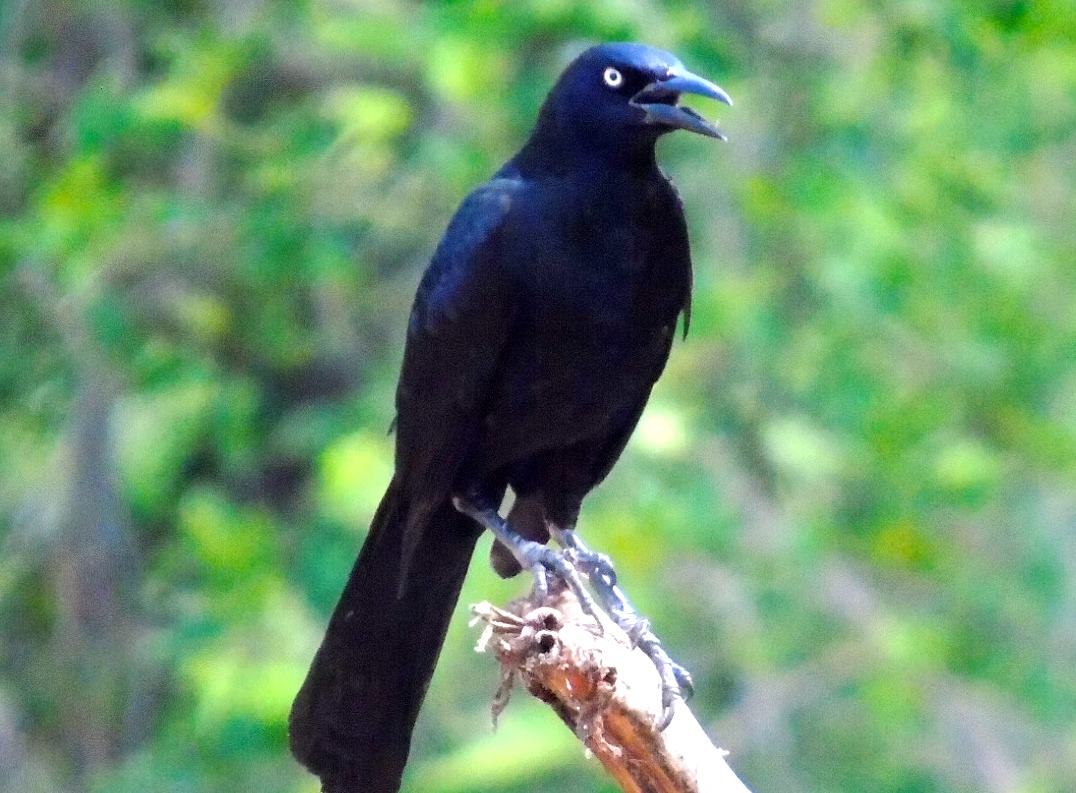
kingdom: Animalia
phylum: Chordata
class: Aves
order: Passeriformes
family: Icteridae
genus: Quiscalus
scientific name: Quiscalus mexicanus
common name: Great-tailed grackle
